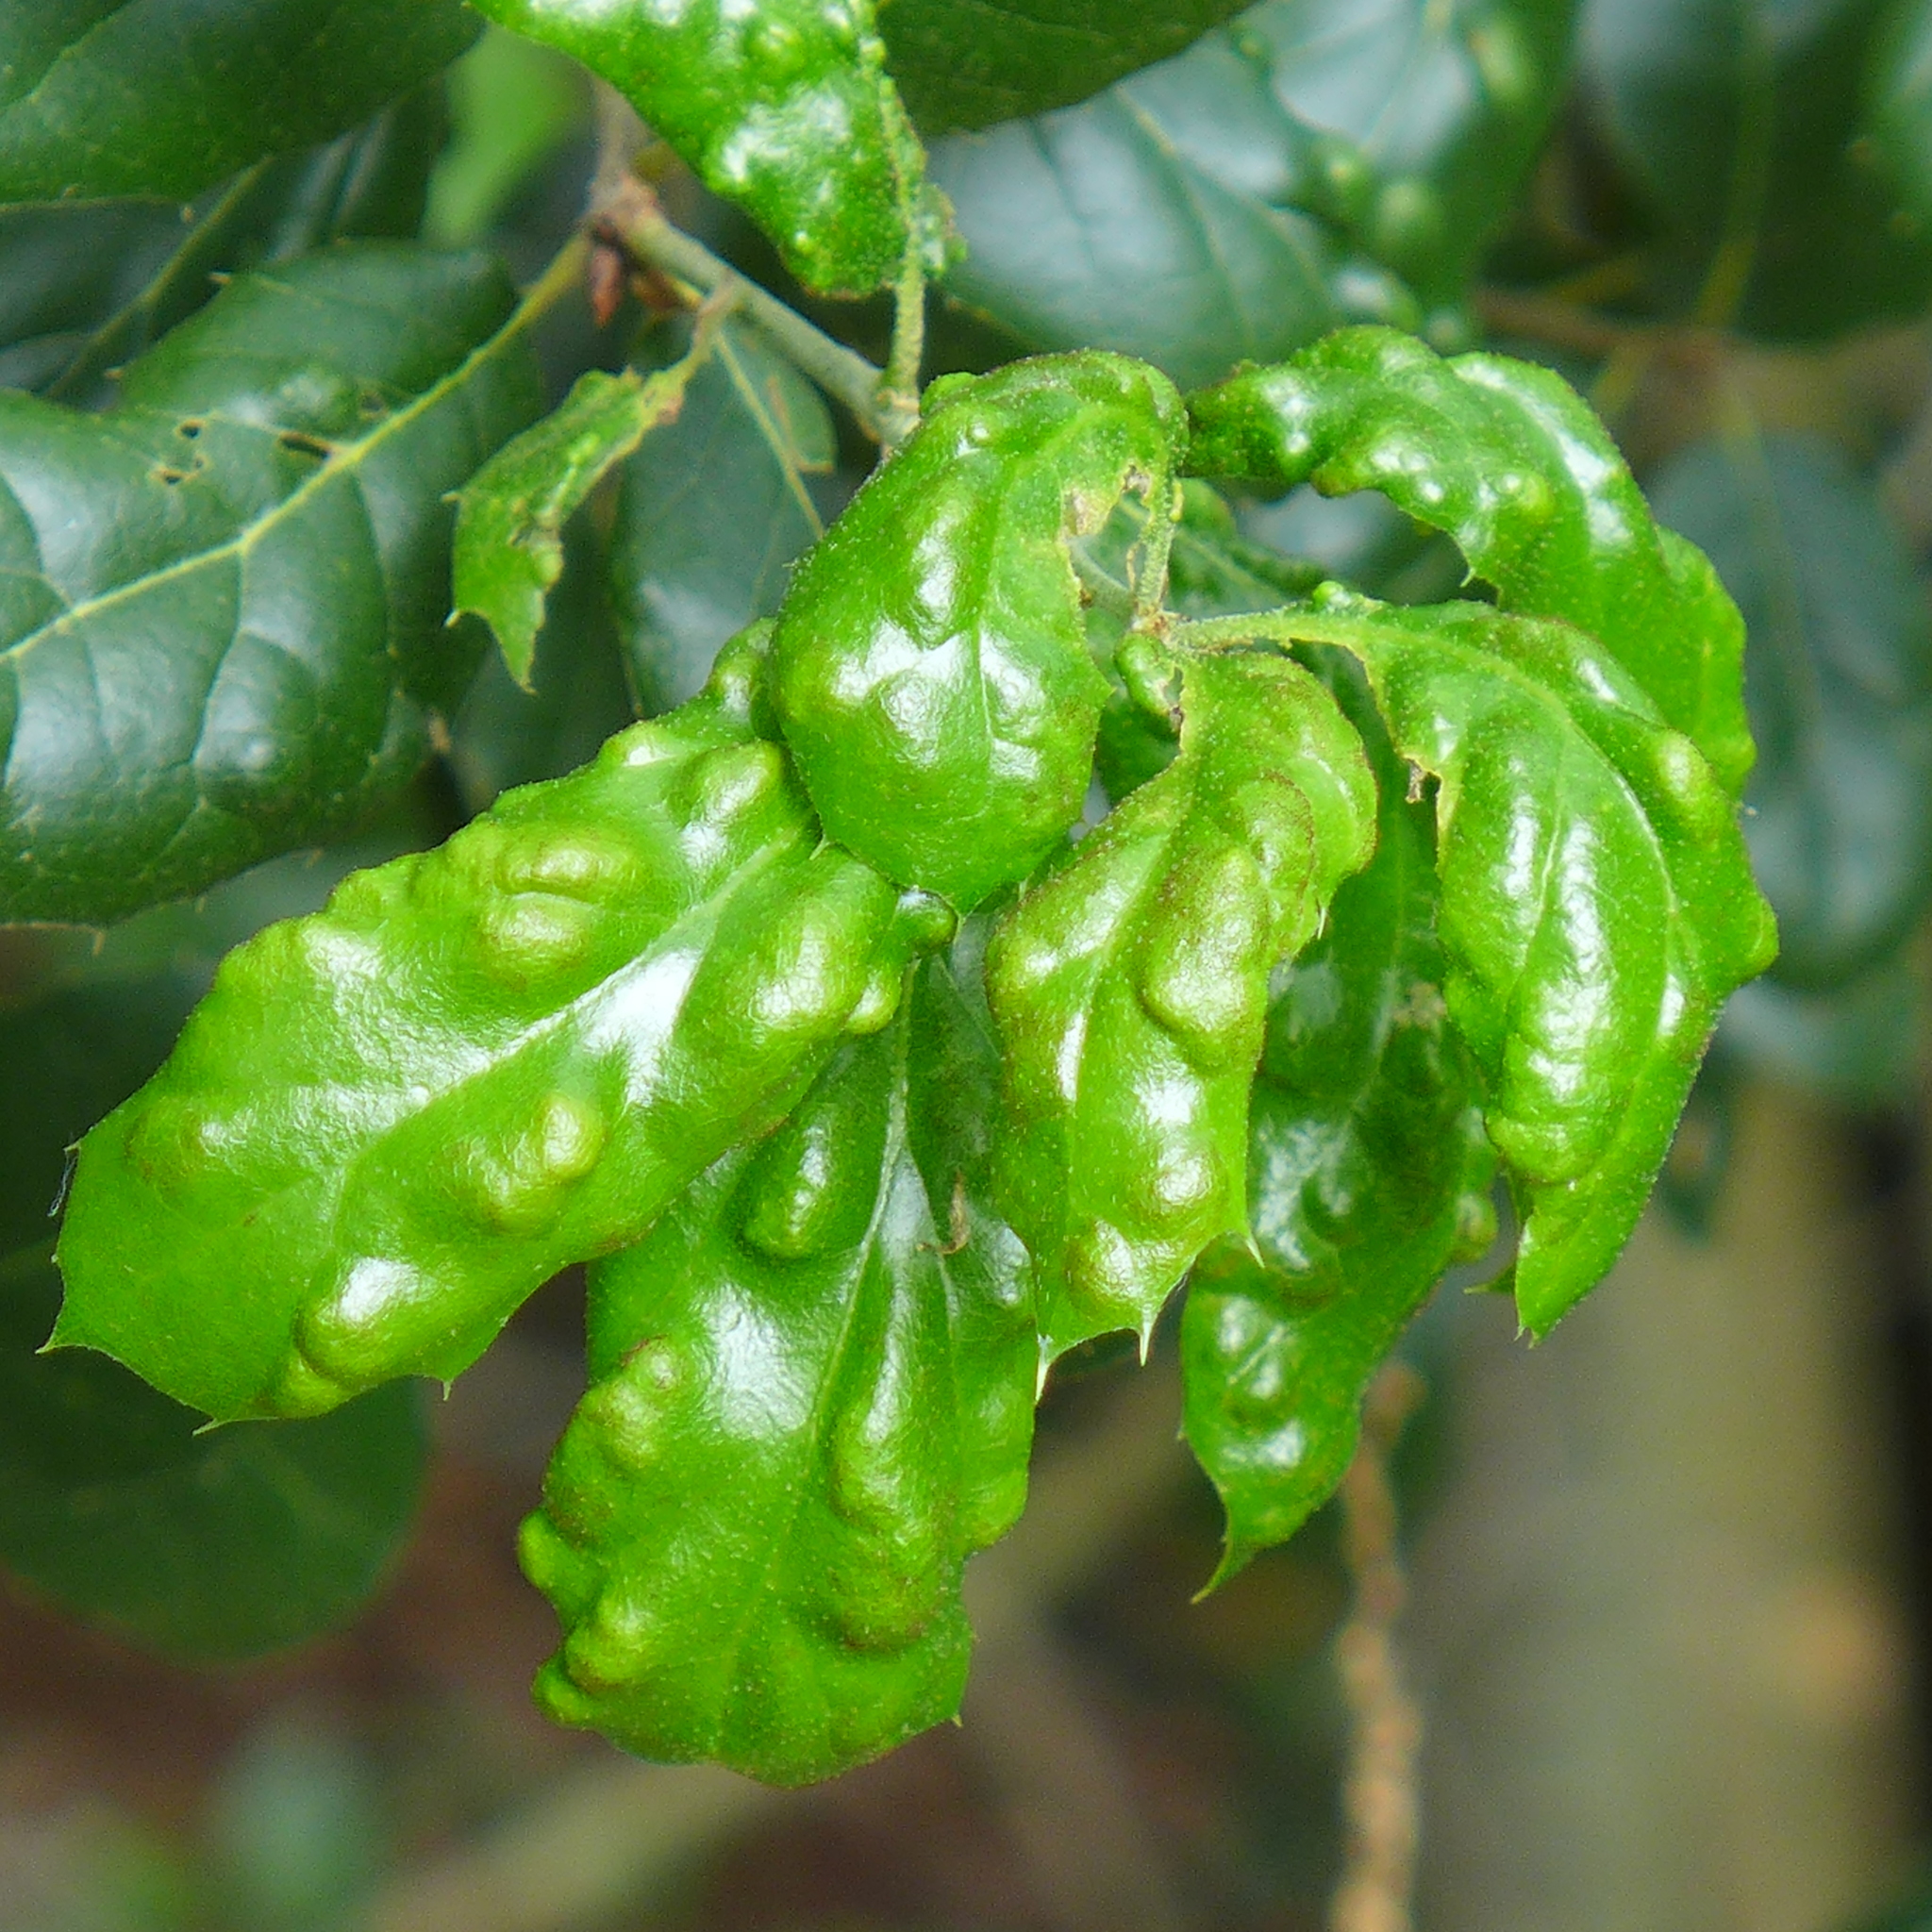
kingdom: Animalia
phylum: Arthropoda
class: Arachnida
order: Trombidiformes
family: Eriophyidae
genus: Aceria
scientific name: Aceria
